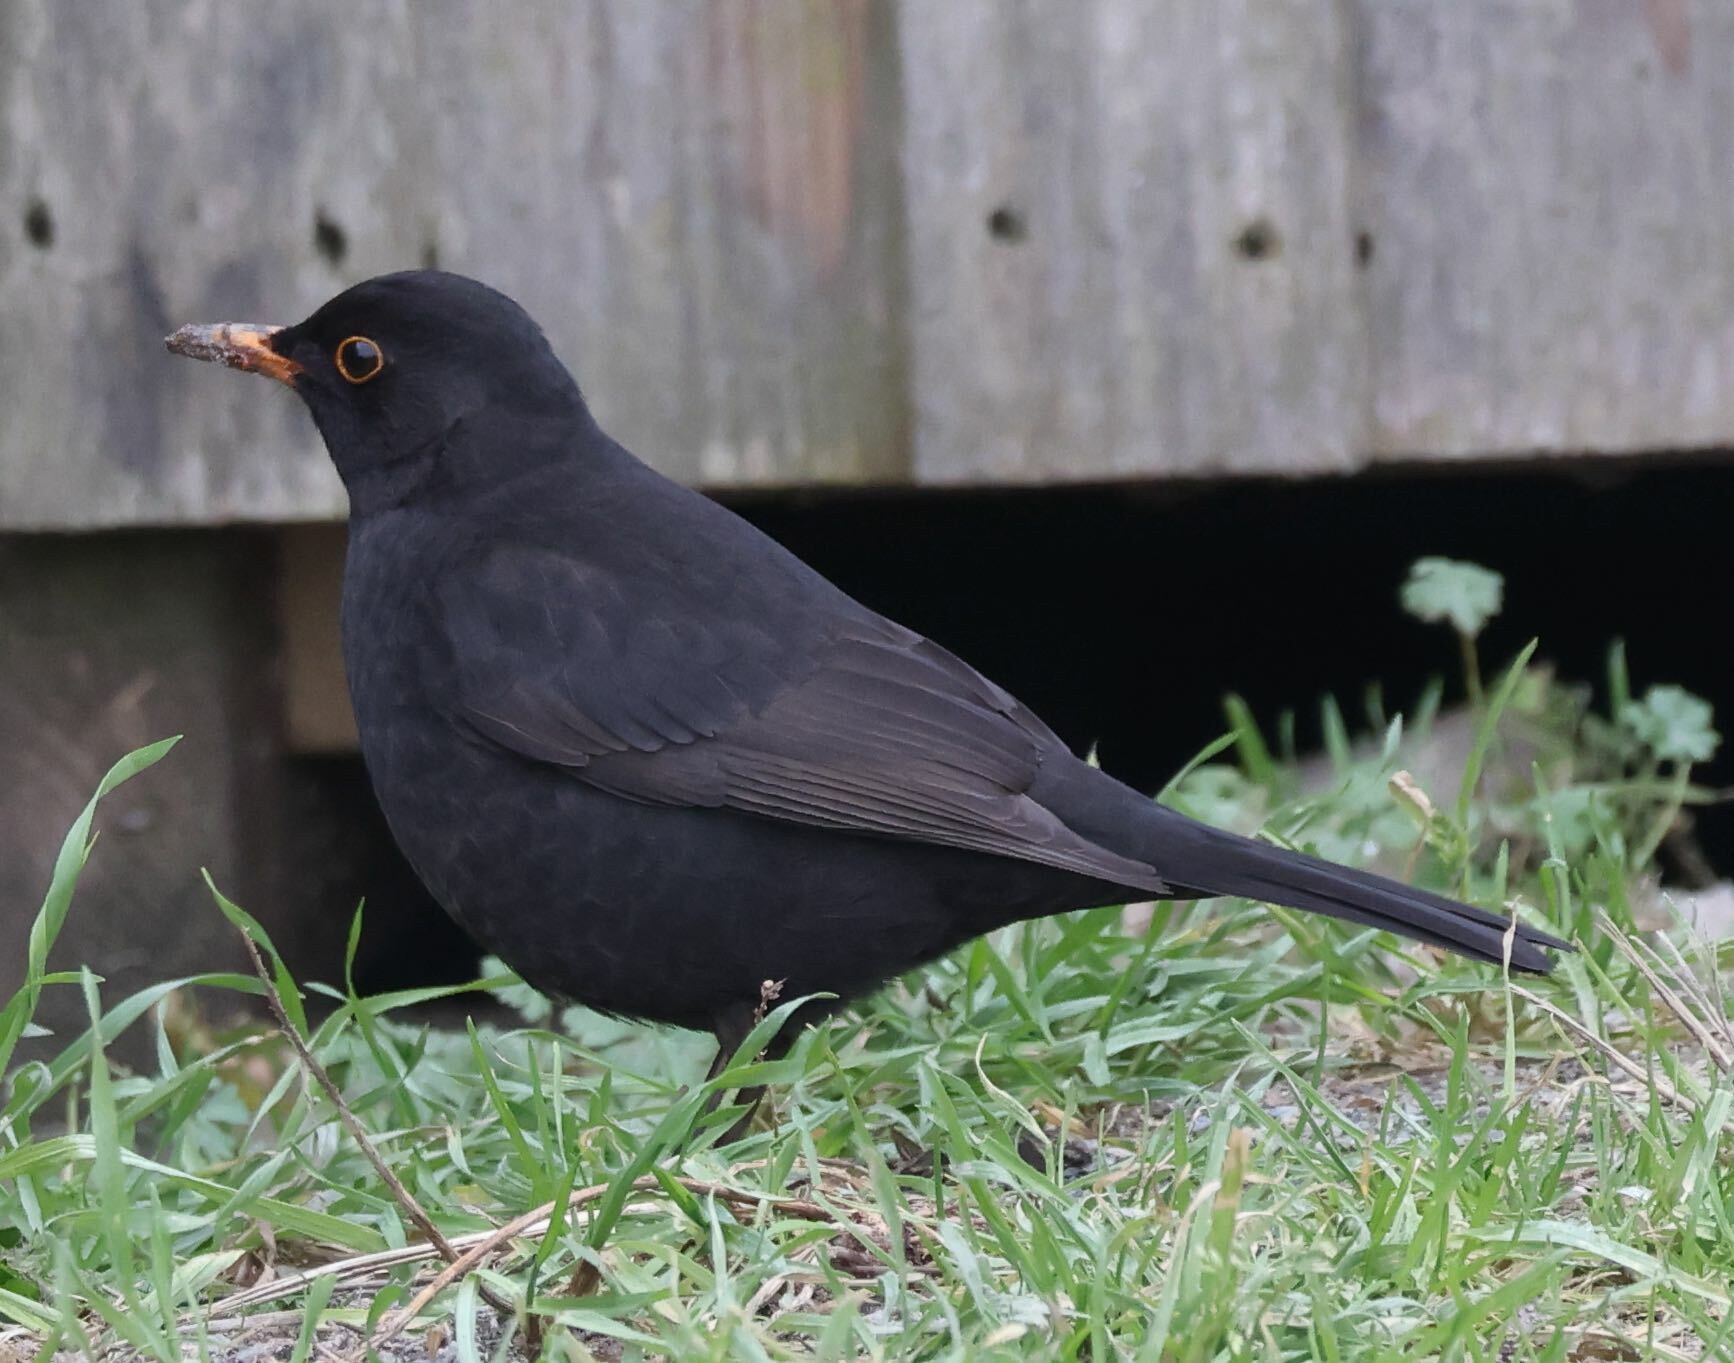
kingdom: Animalia
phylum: Chordata
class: Aves
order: Passeriformes
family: Turdidae
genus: Turdus
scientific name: Turdus merula
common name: Common blackbird
